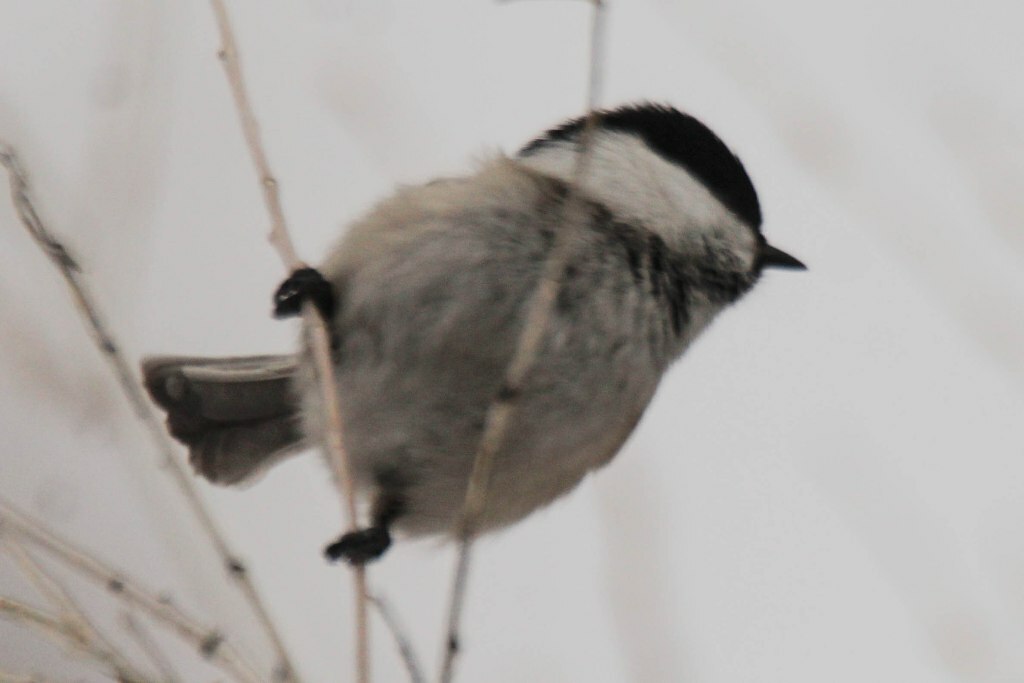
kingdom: Animalia
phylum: Chordata
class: Aves
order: Passeriformes
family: Paridae
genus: Poecile
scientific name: Poecile montanus
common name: Willow tit
